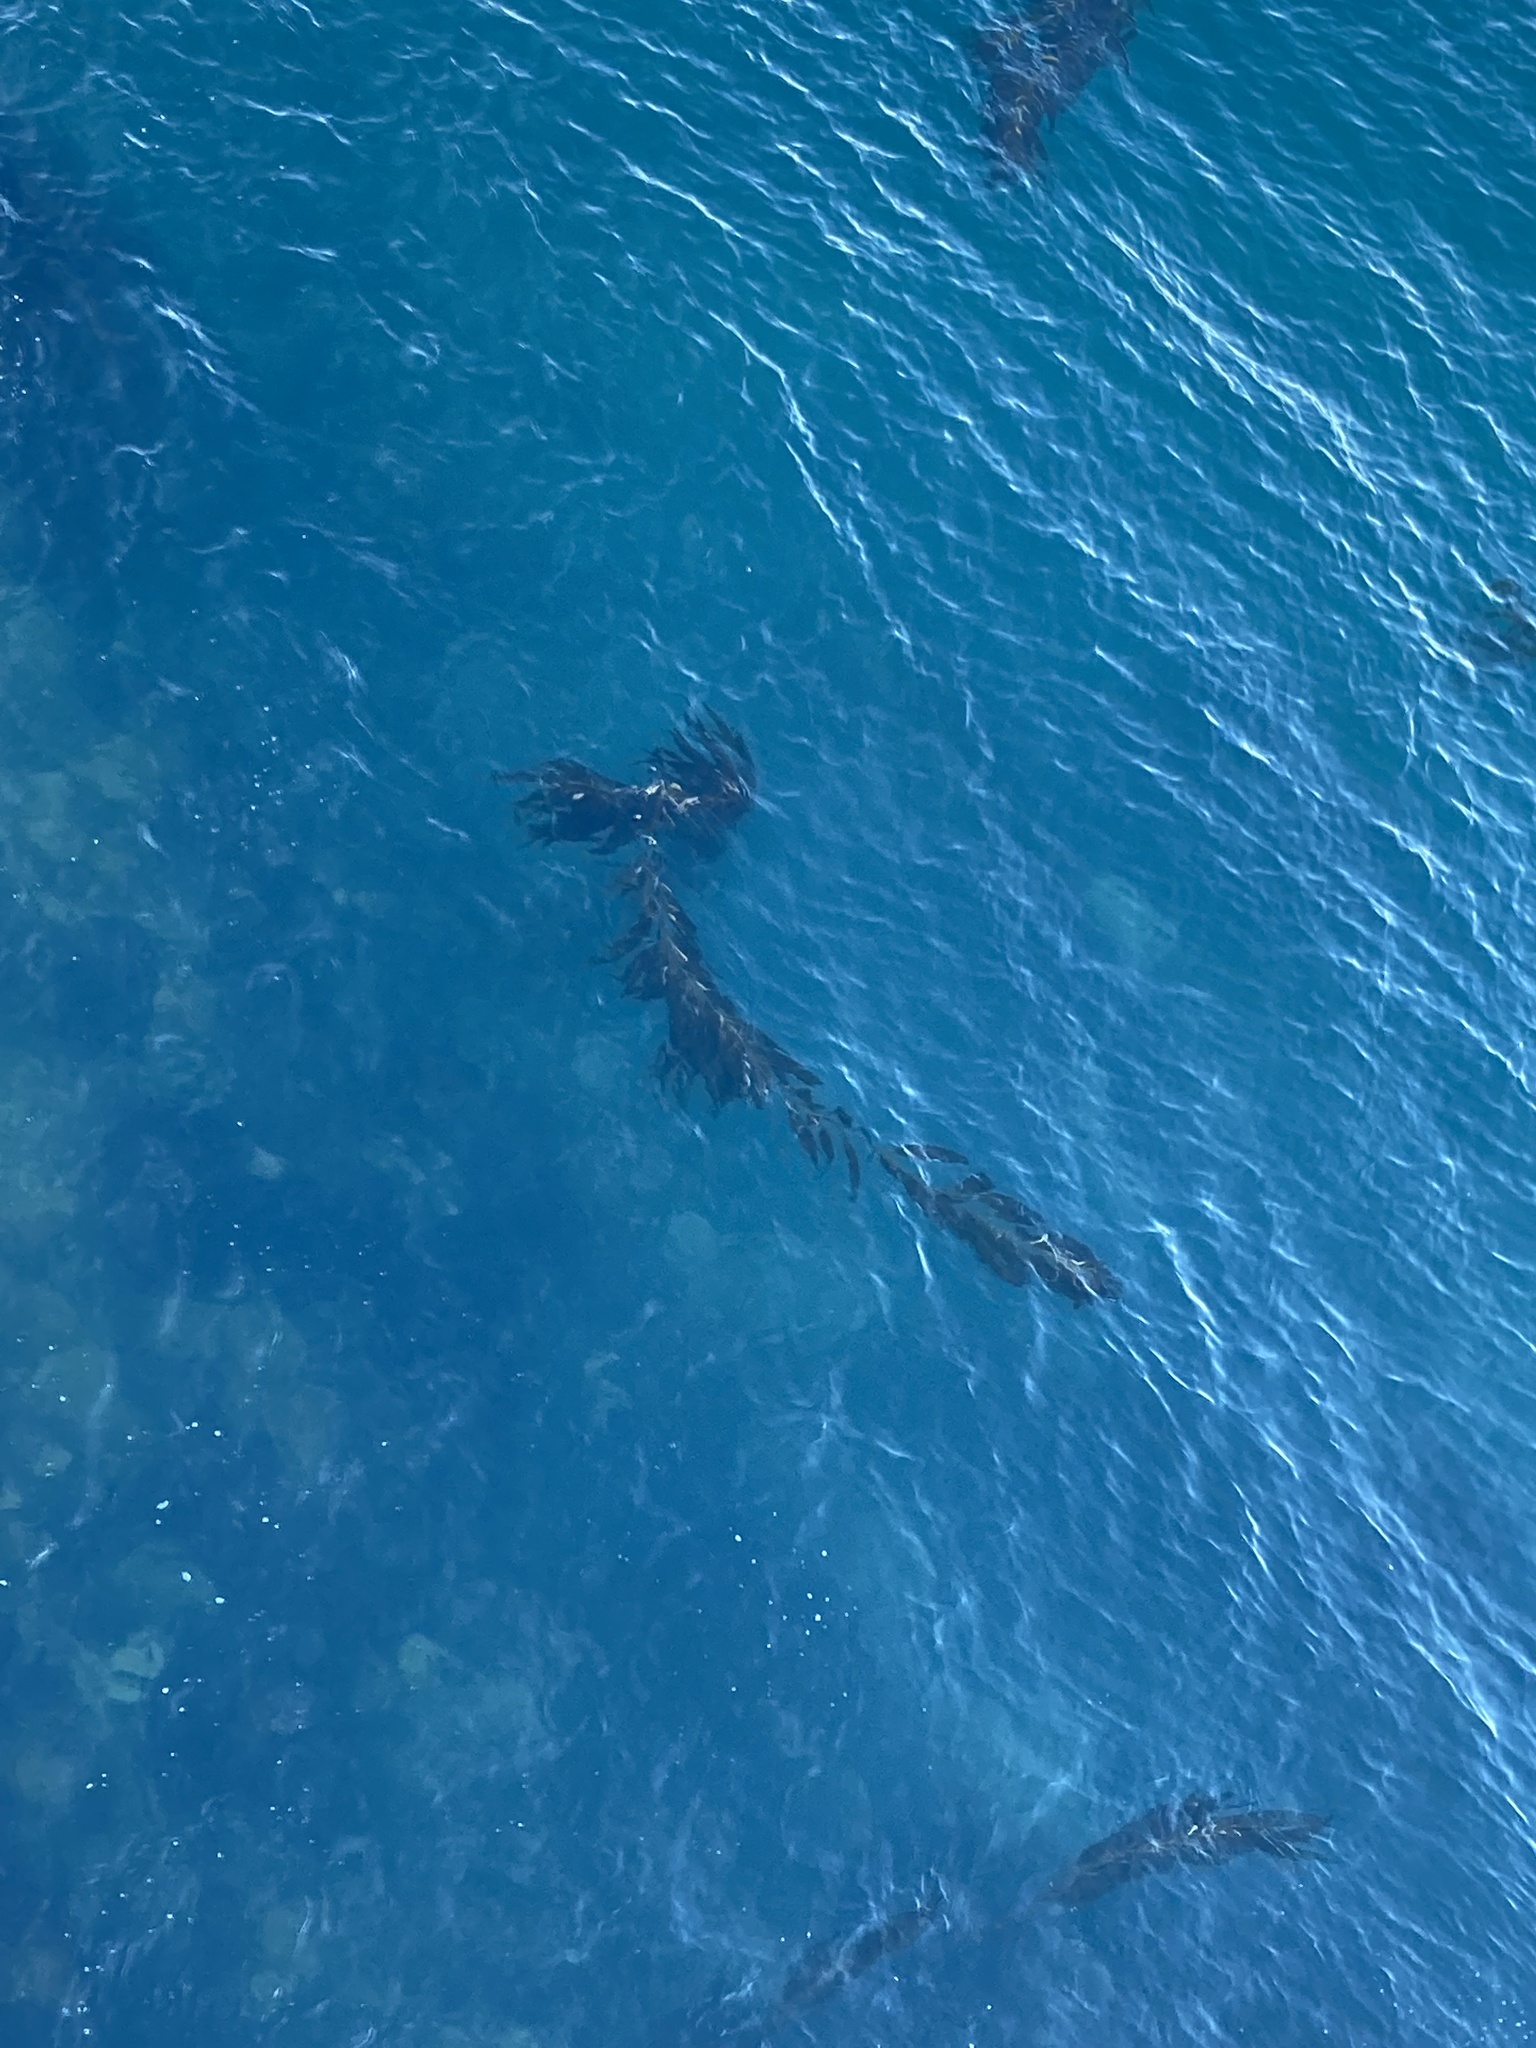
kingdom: Chromista
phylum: Ochrophyta
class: Phaeophyceae
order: Laminariales
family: Laminariaceae
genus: Macrocystis
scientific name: Macrocystis pyrifera
